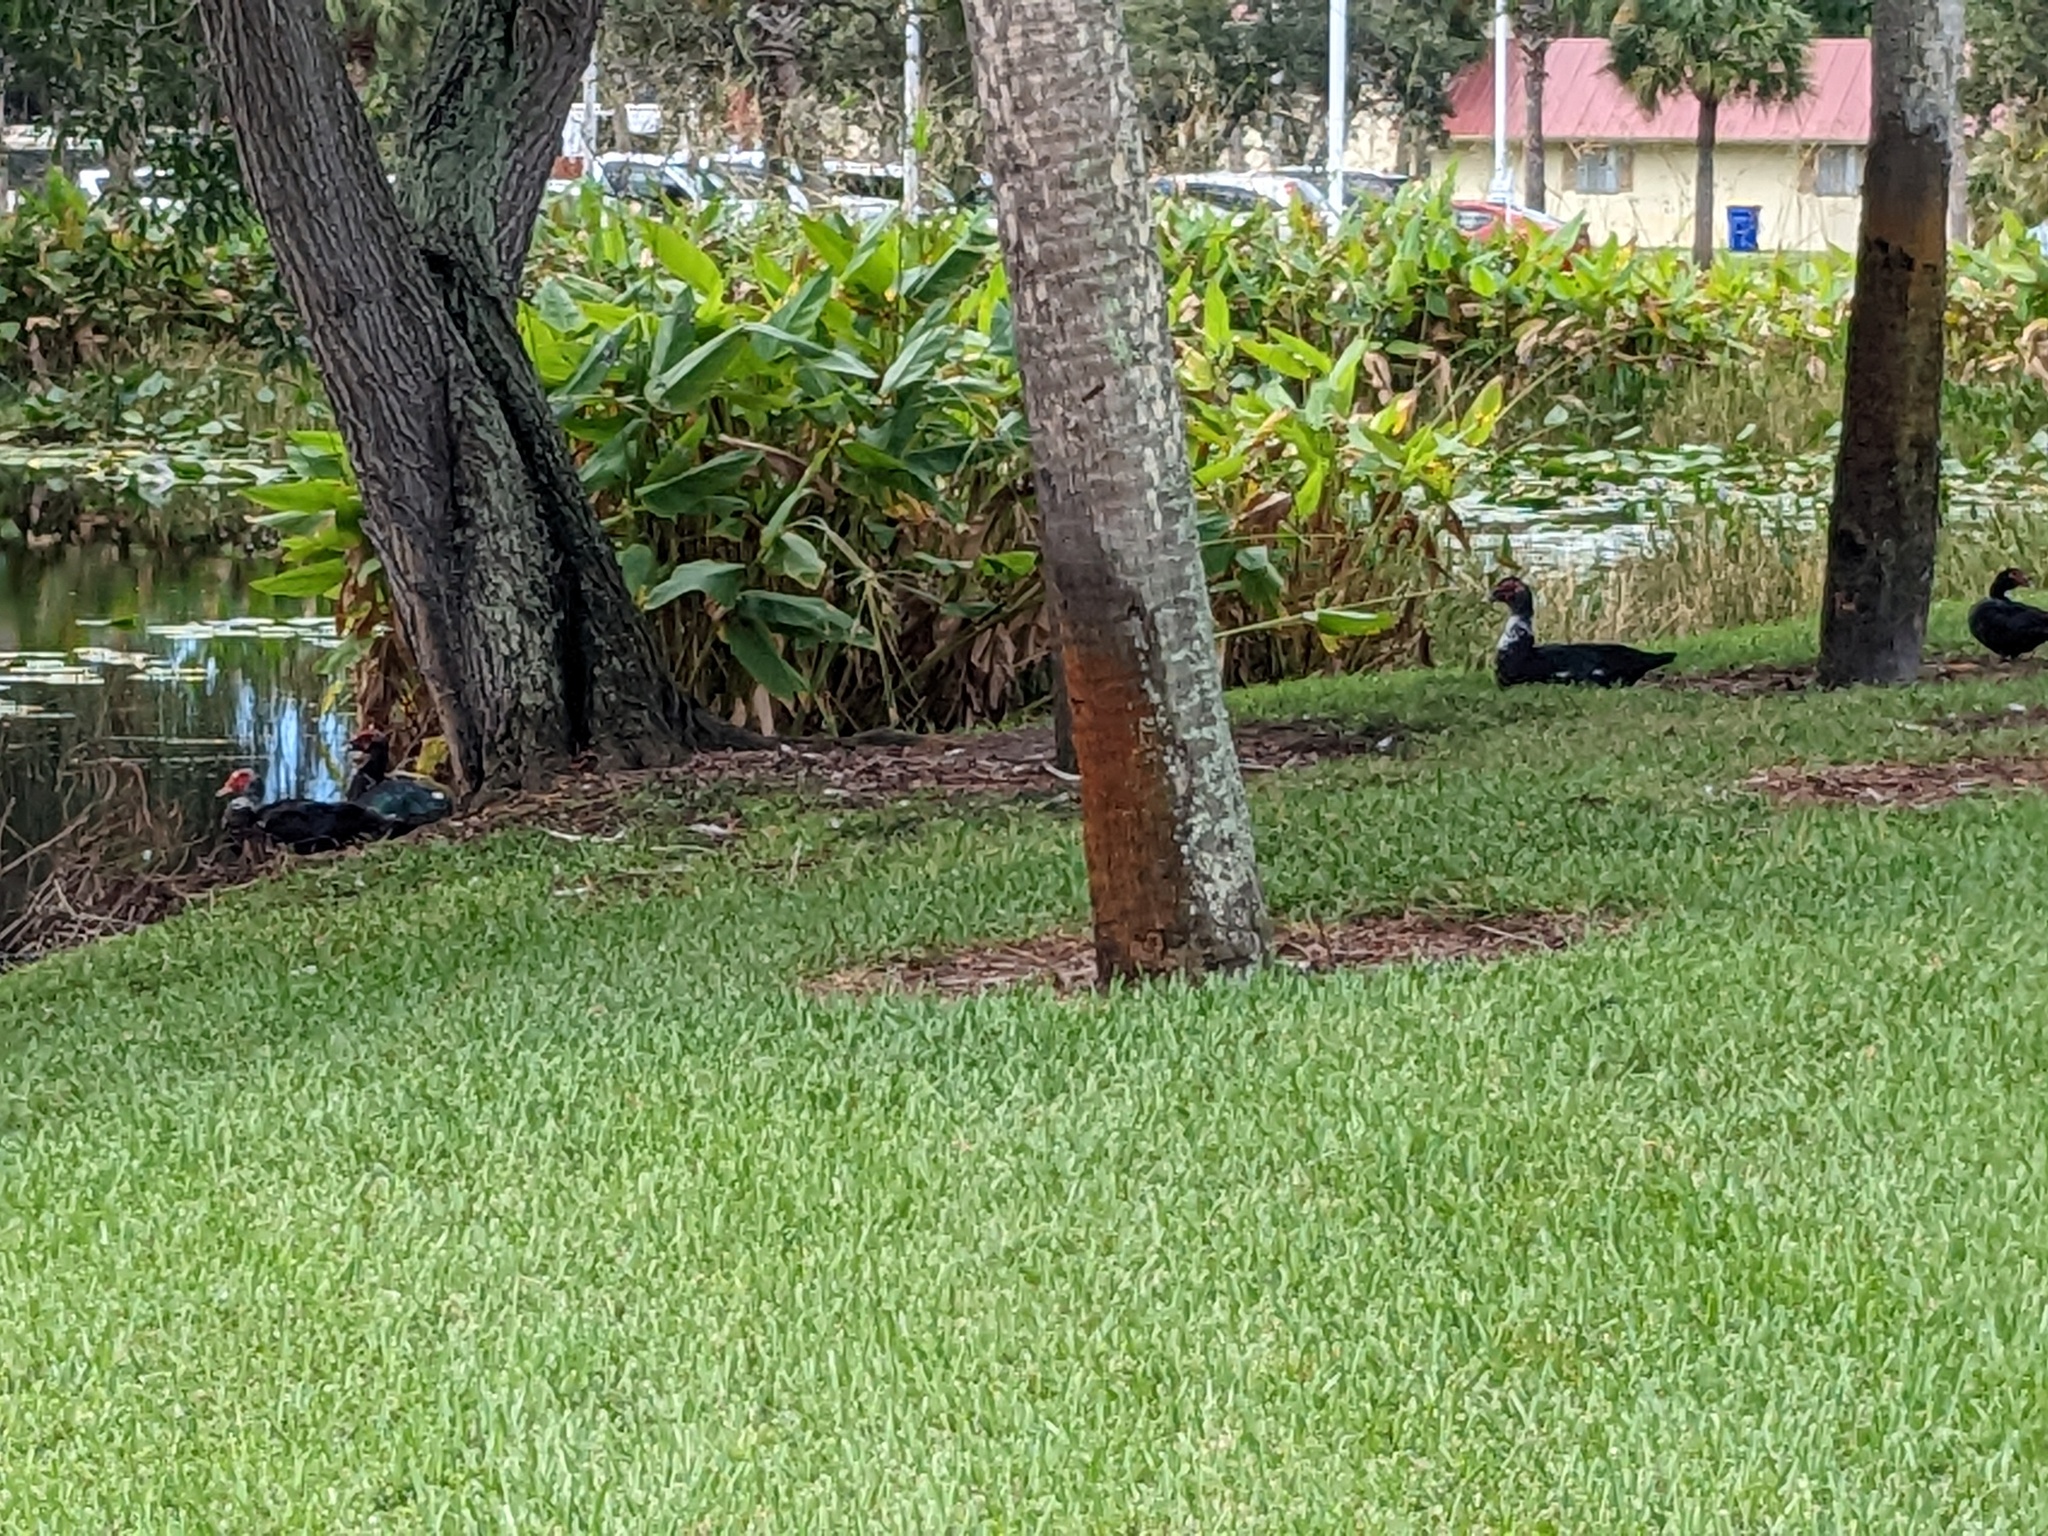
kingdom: Animalia
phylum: Chordata
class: Aves
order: Anseriformes
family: Anatidae
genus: Cairina
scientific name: Cairina moschata
